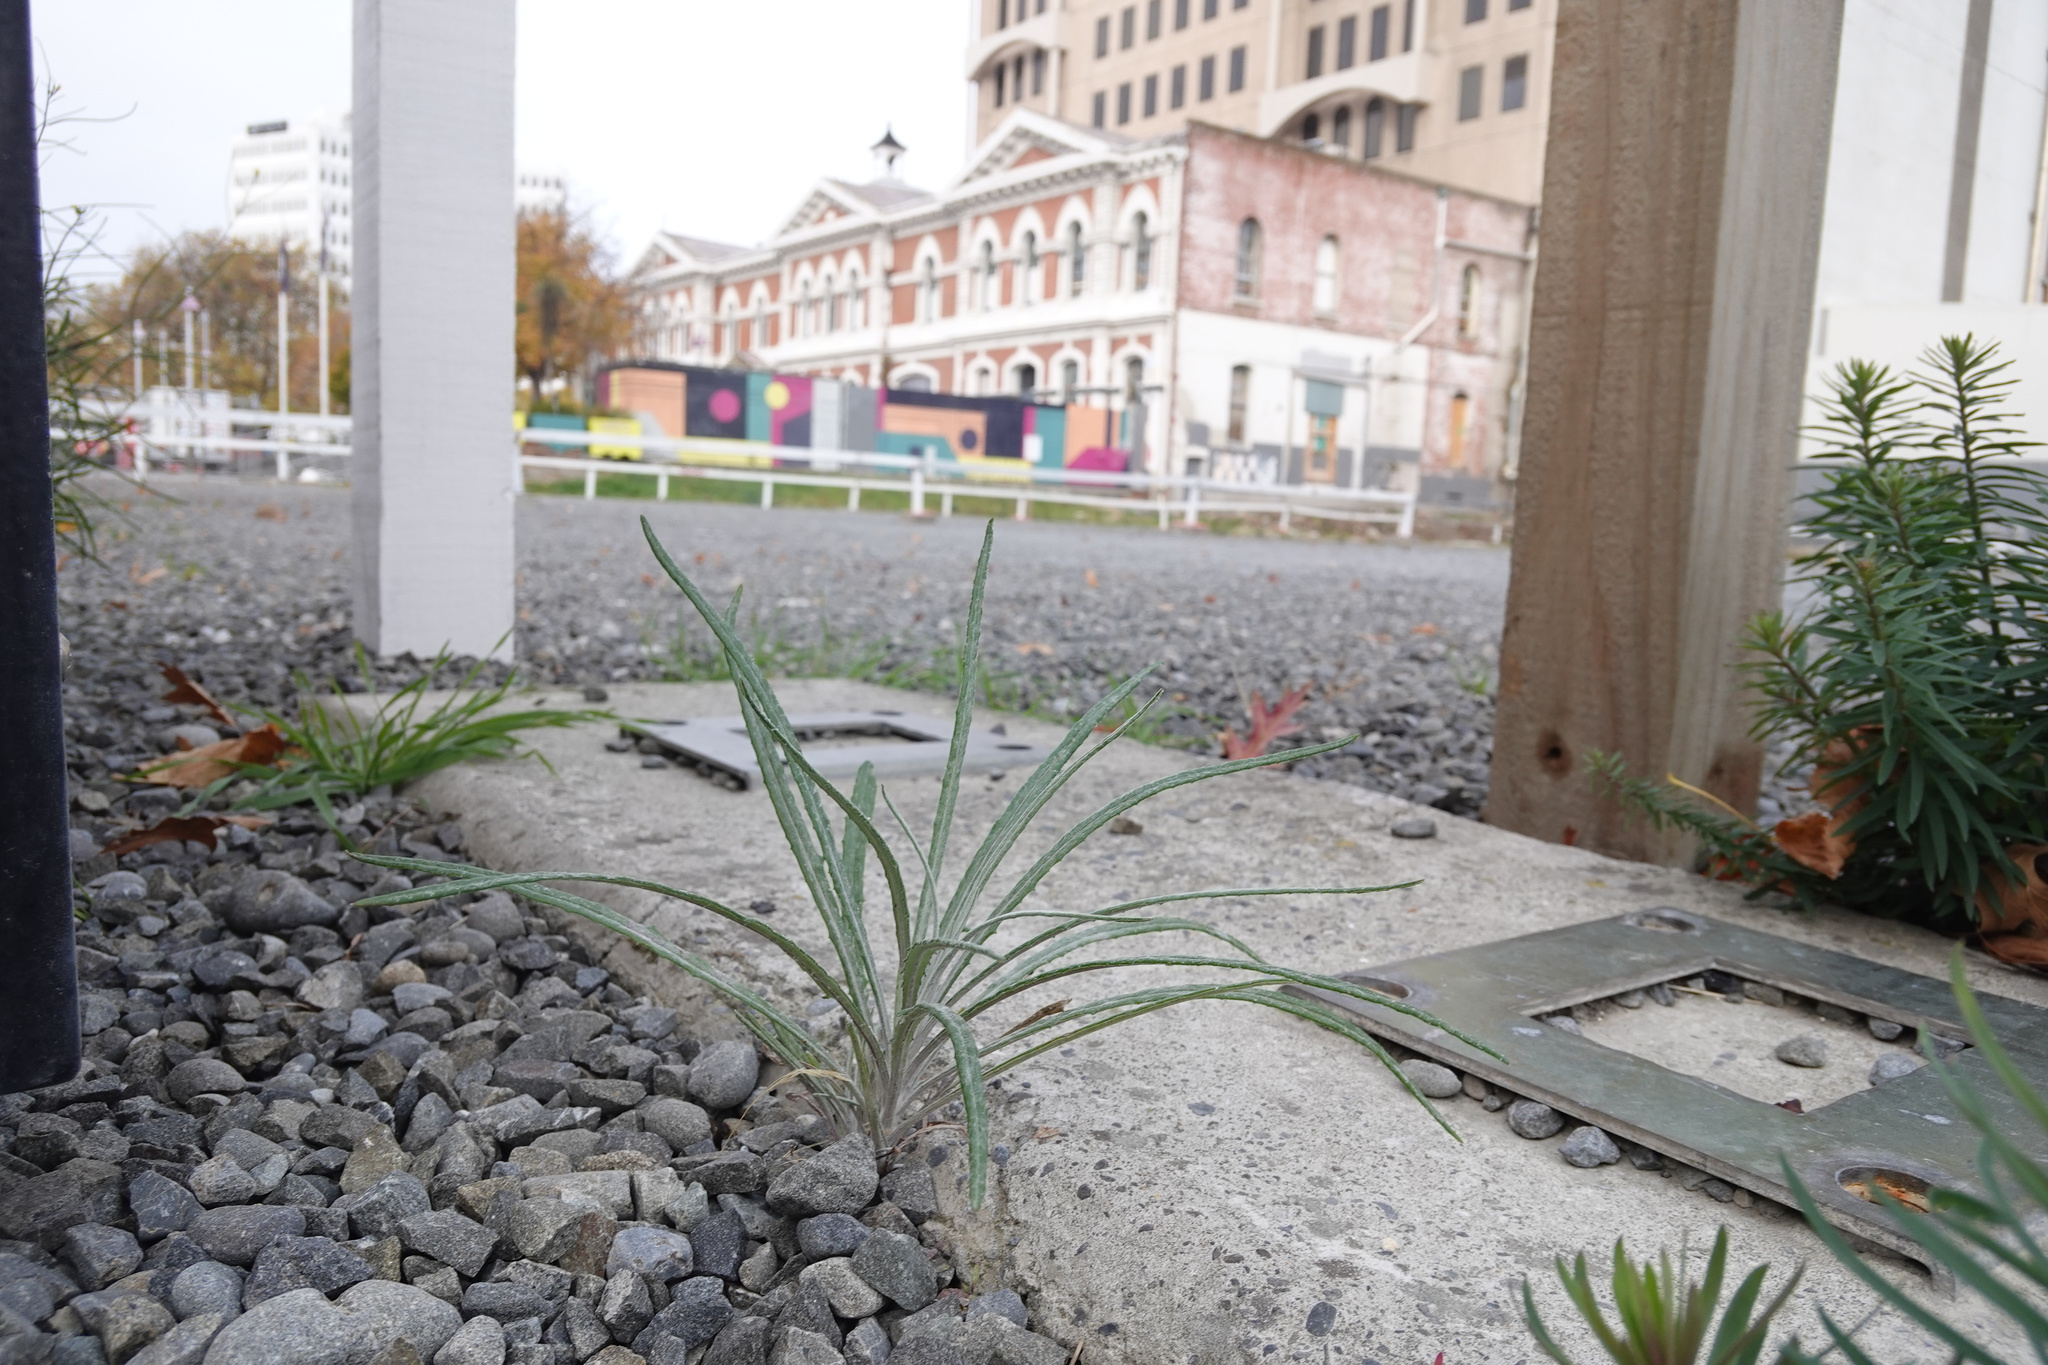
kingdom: Plantae
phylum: Tracheophyta
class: Magnoliopsida
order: Asterales
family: Asteraceae
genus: Senecio
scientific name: Senecio quadridentatus
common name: Cotton fireweed
